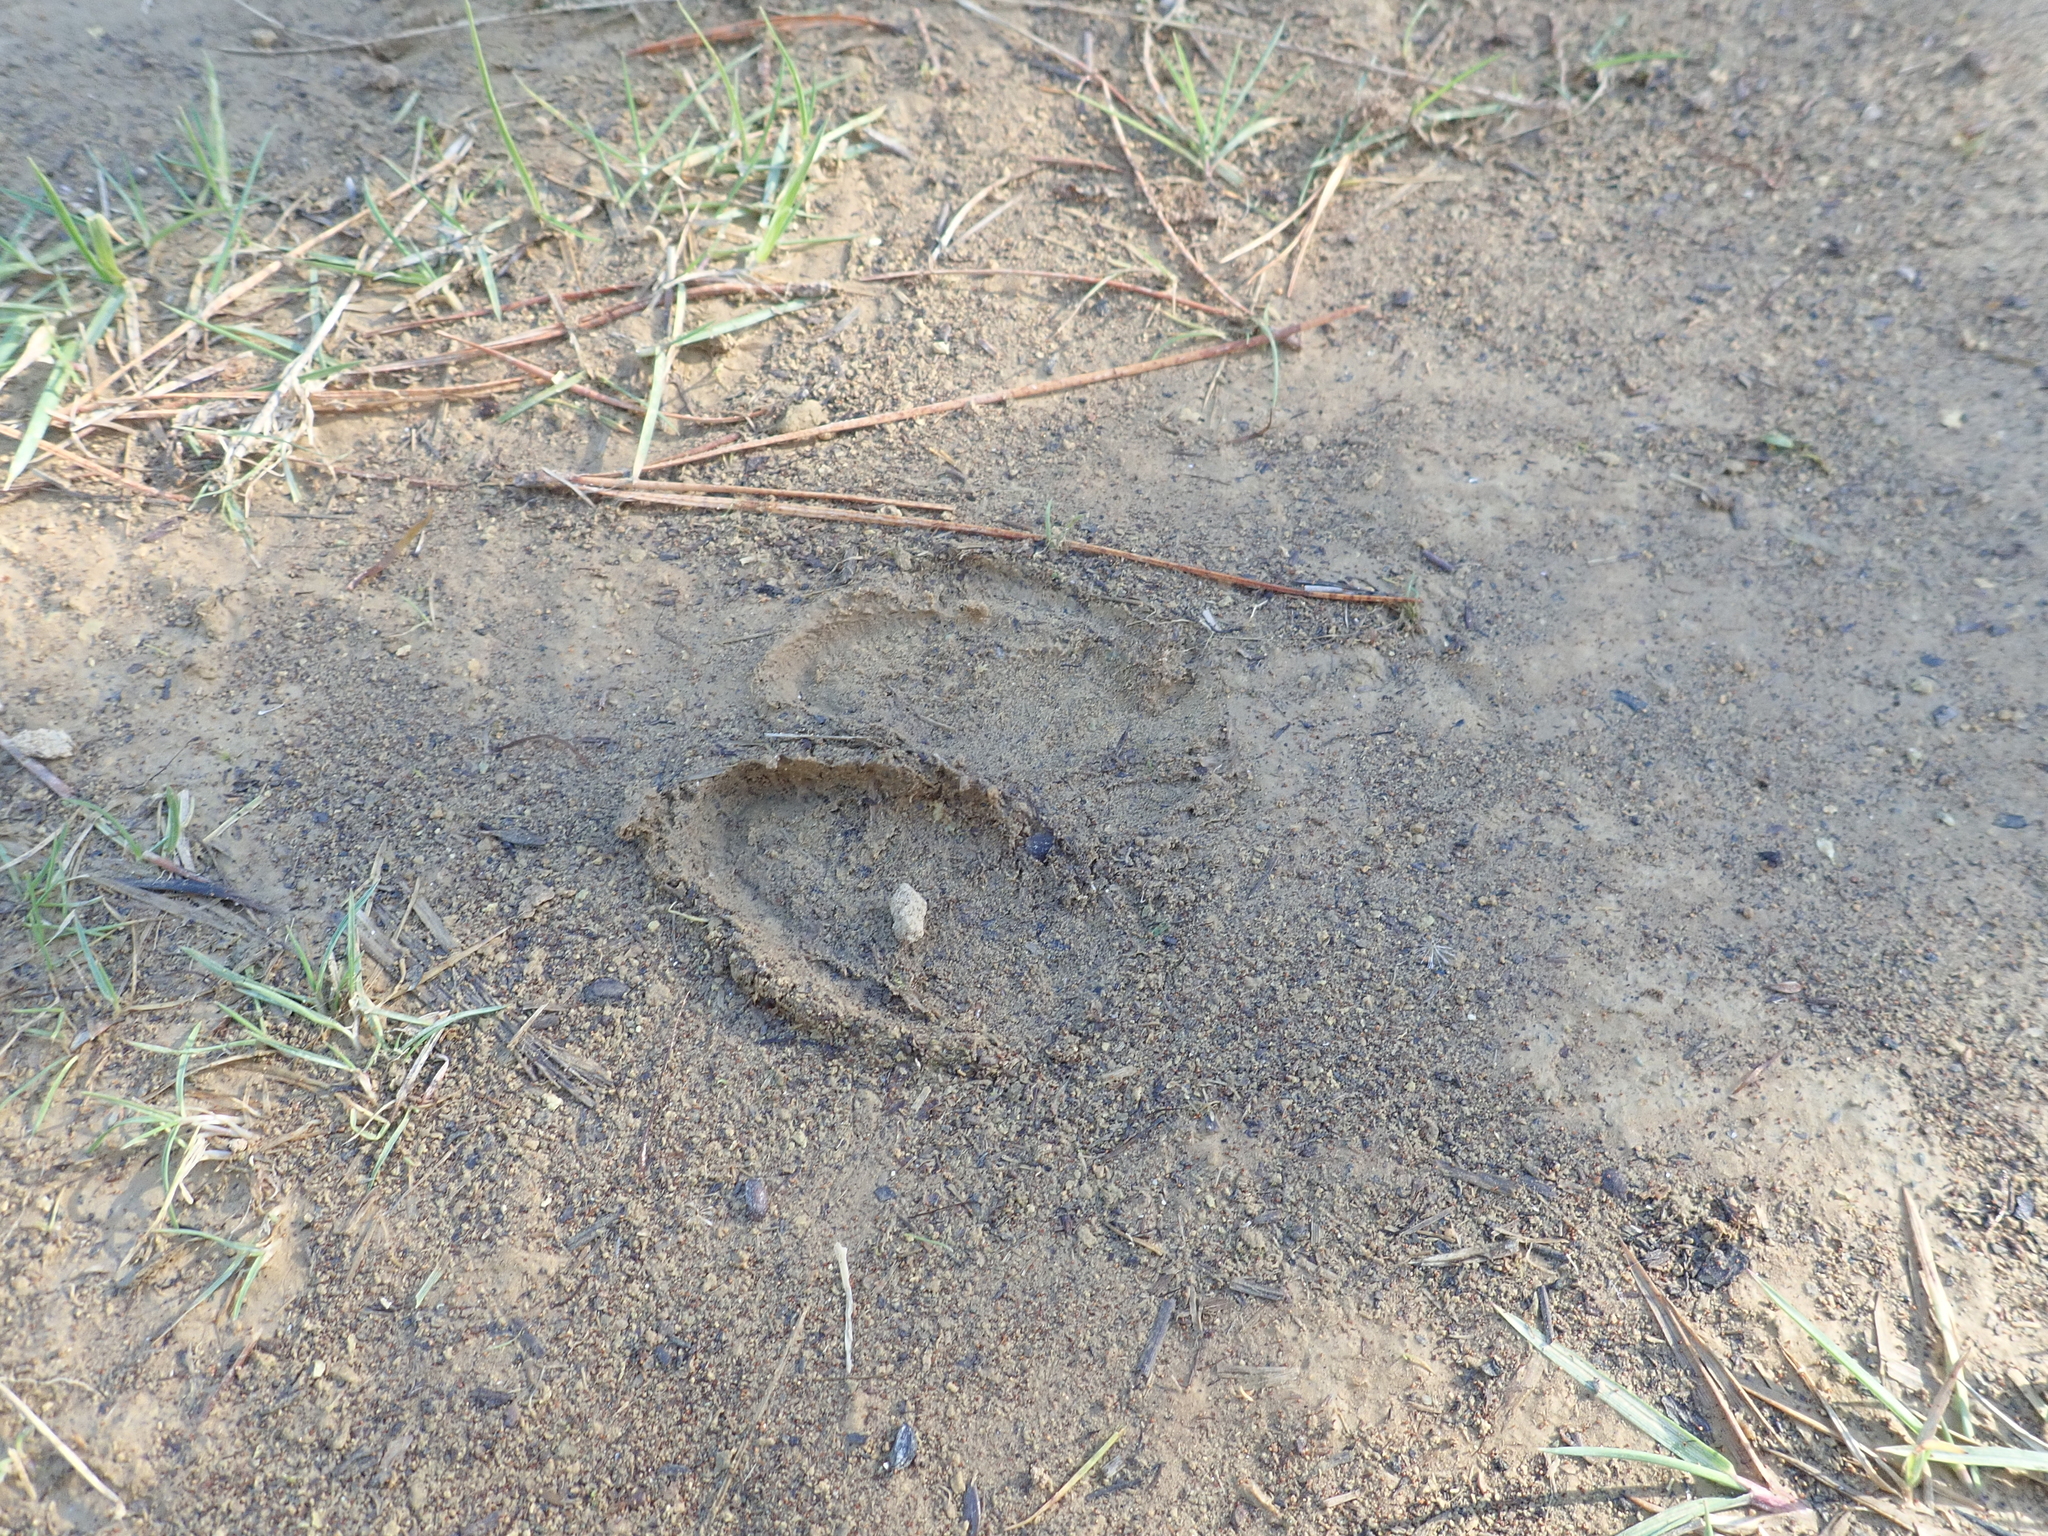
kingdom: Animalia
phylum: Chordata
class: Mammalia
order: Artiodactyla
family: Bovidae
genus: Capra
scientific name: Capra hircus
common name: Domestic goat
